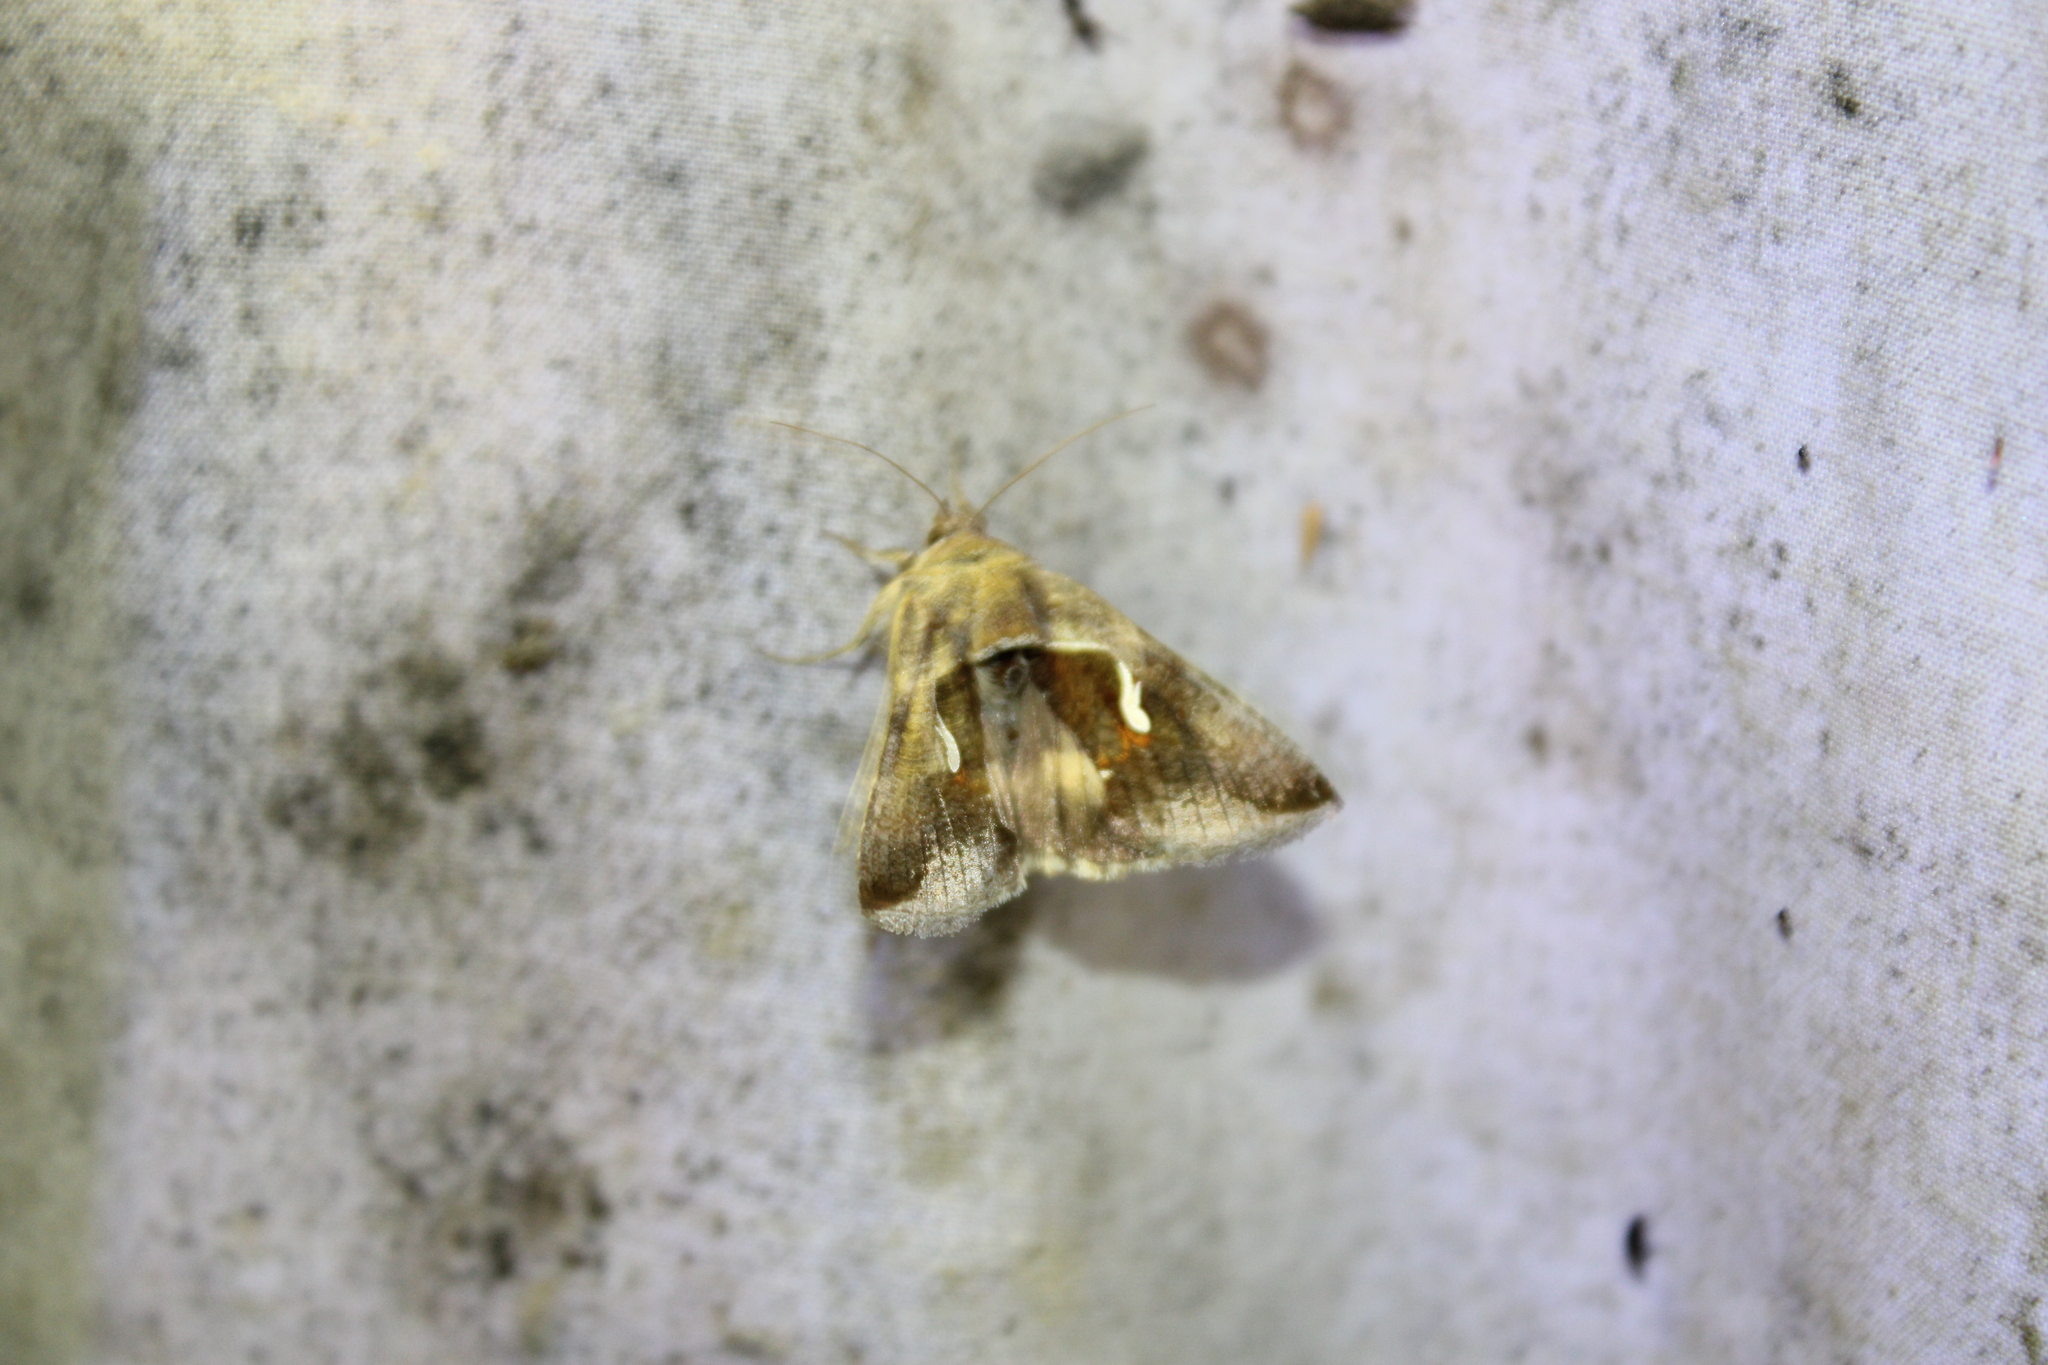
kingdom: Animalia
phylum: Arthropoda
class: Insecta
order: Lepidoptera
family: Noctuidae
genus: Anagrapha
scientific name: Anagrapha falcifera
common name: Celery looper
